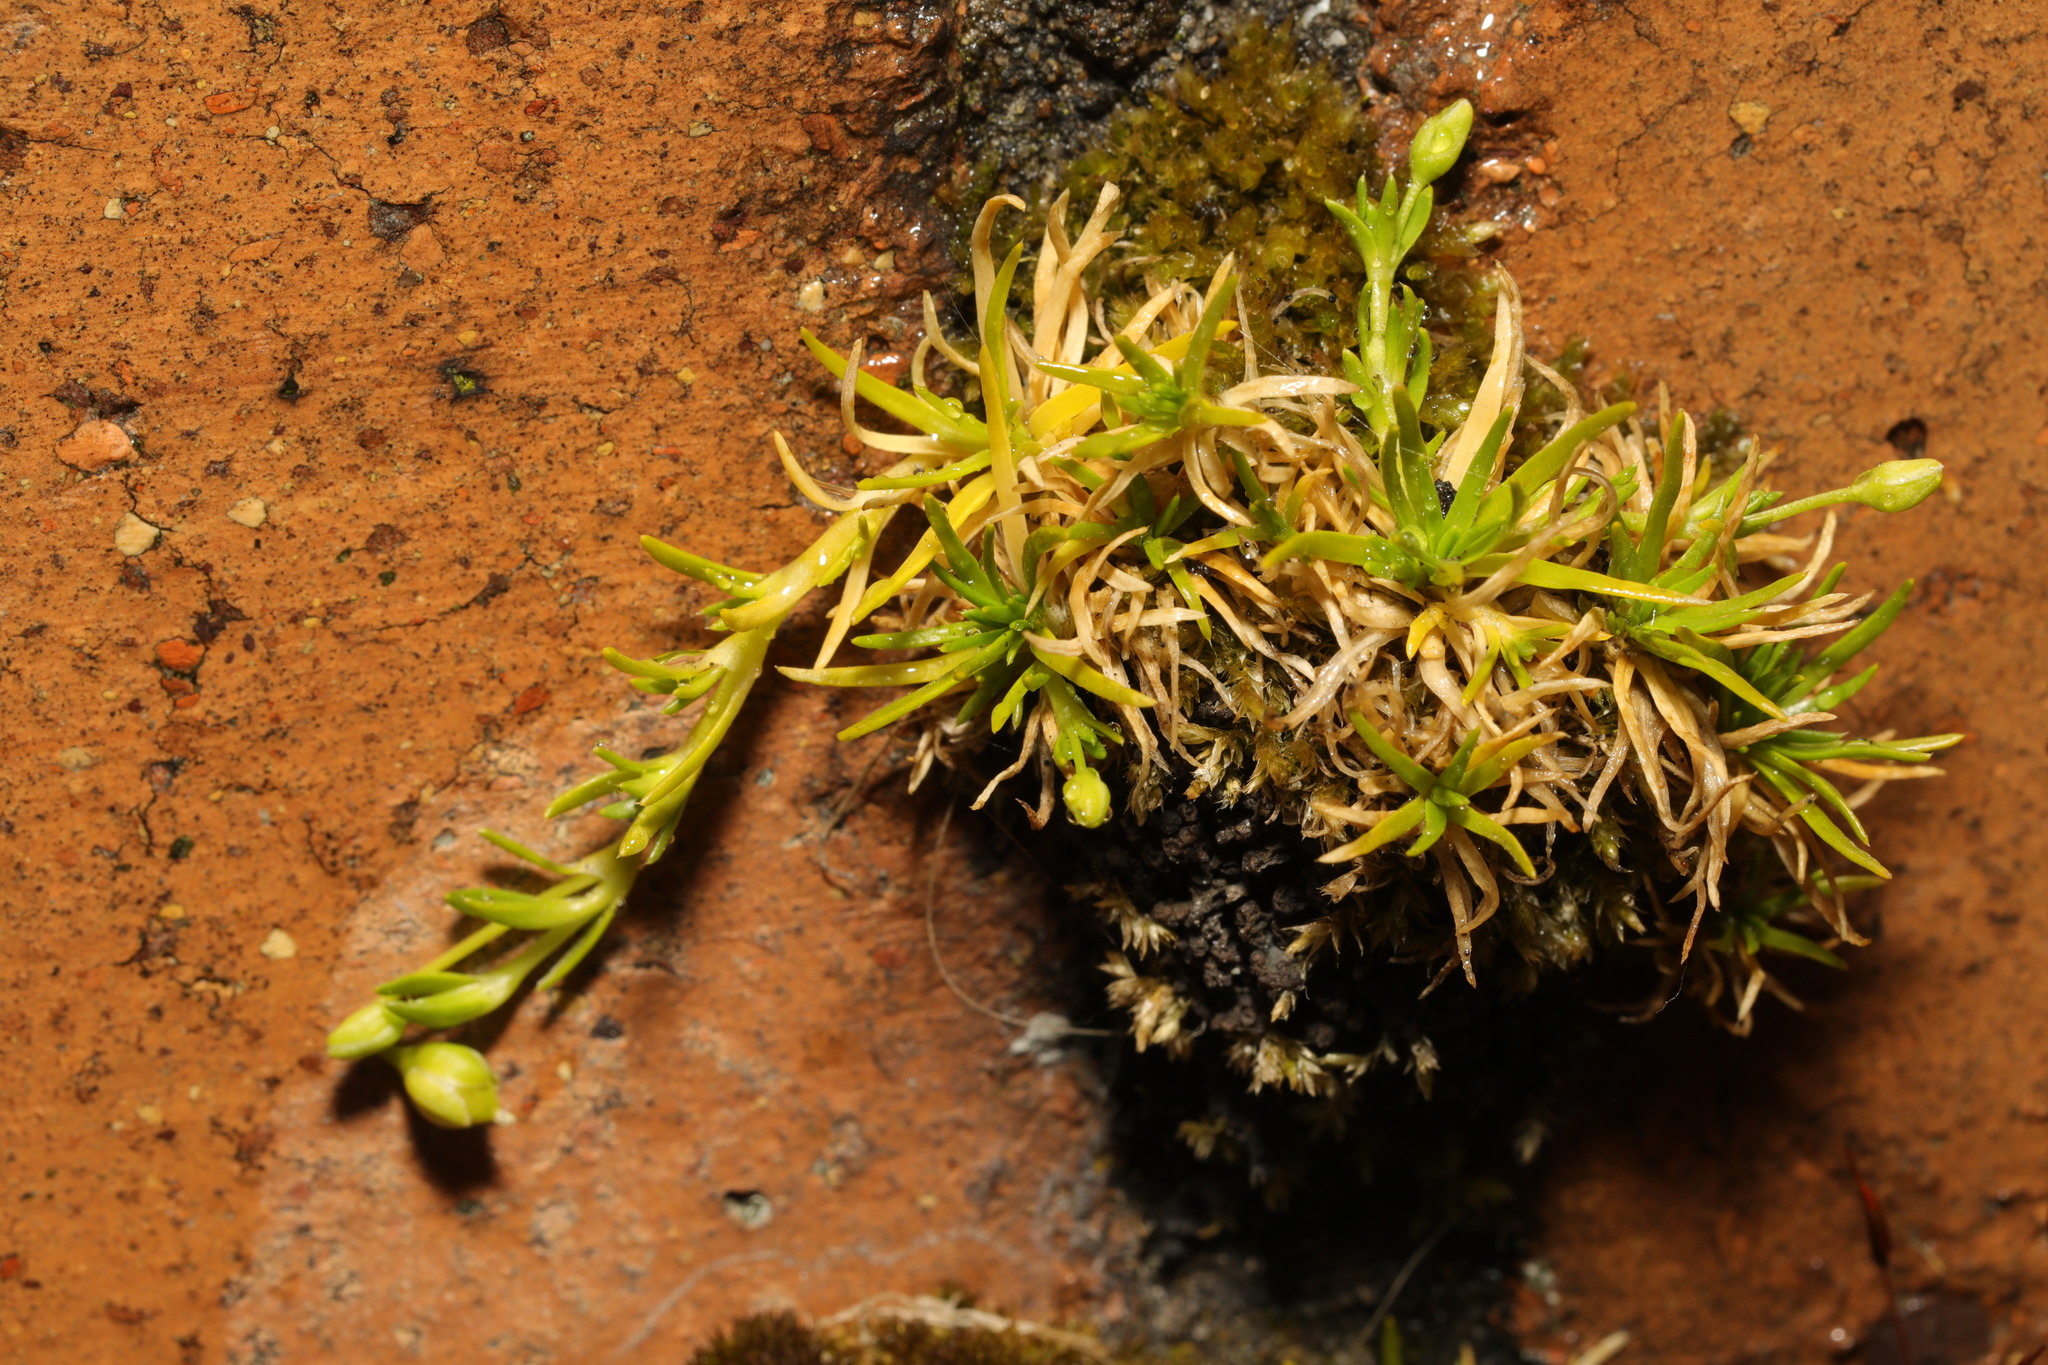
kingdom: Plantae
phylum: Tracheophyta
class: Magnoliopsida
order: Caryophyllales
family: Caryophyllaceae
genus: Sagina
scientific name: Sagina procumbens
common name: Procumbent pearlwort
